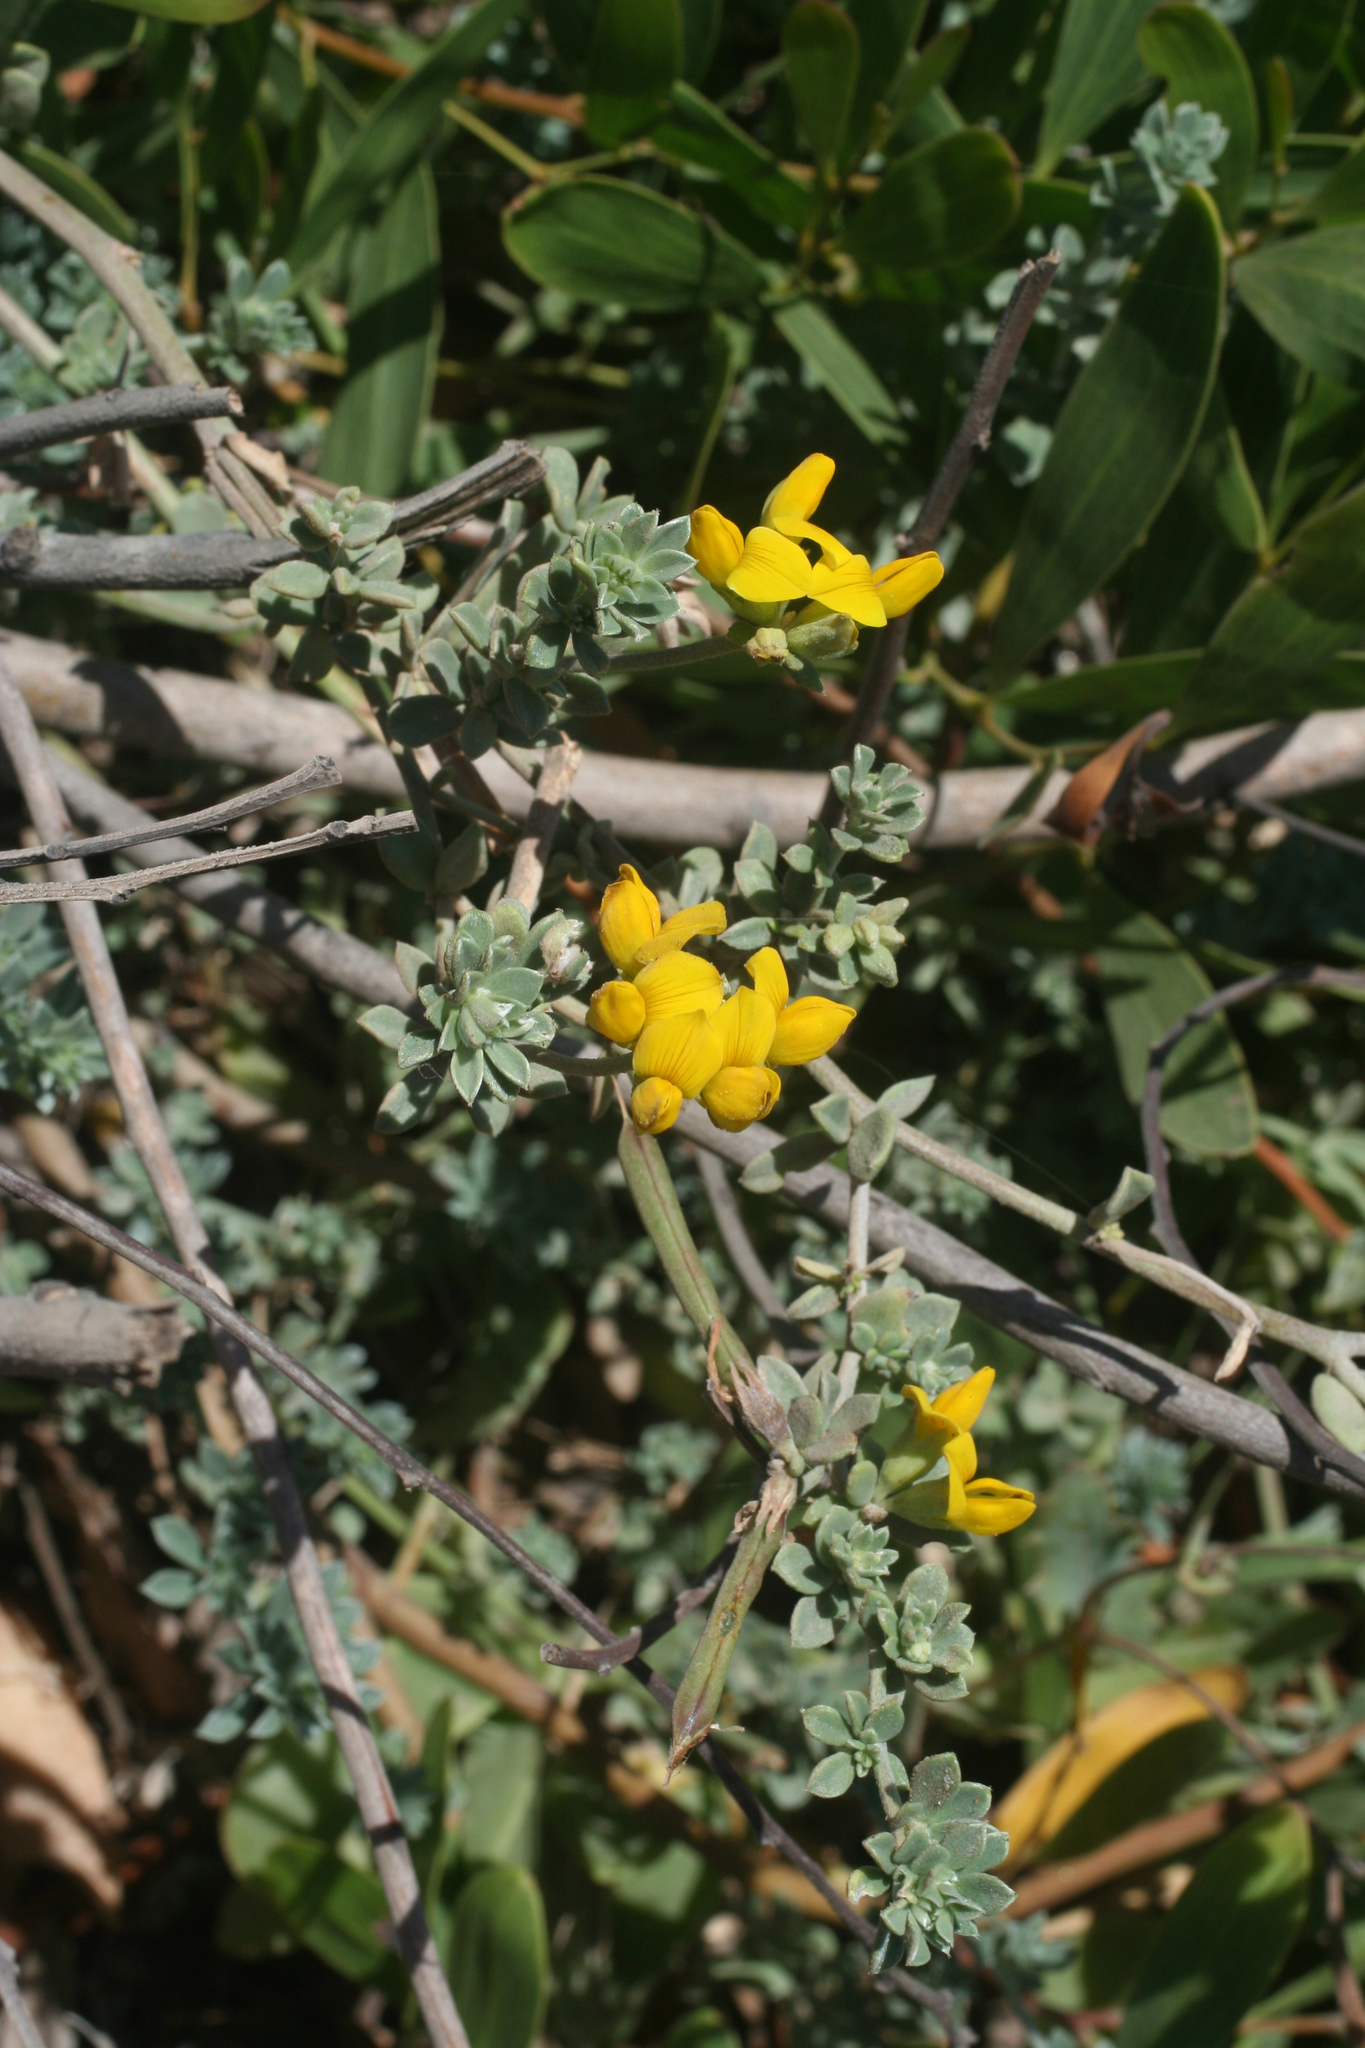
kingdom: Plantae
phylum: Tracheophyta
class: Magnoliopsida
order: Fabales
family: Fabaceae
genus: Lotus
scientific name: Lotus creticus
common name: Cretan bird's-foot trefoil
